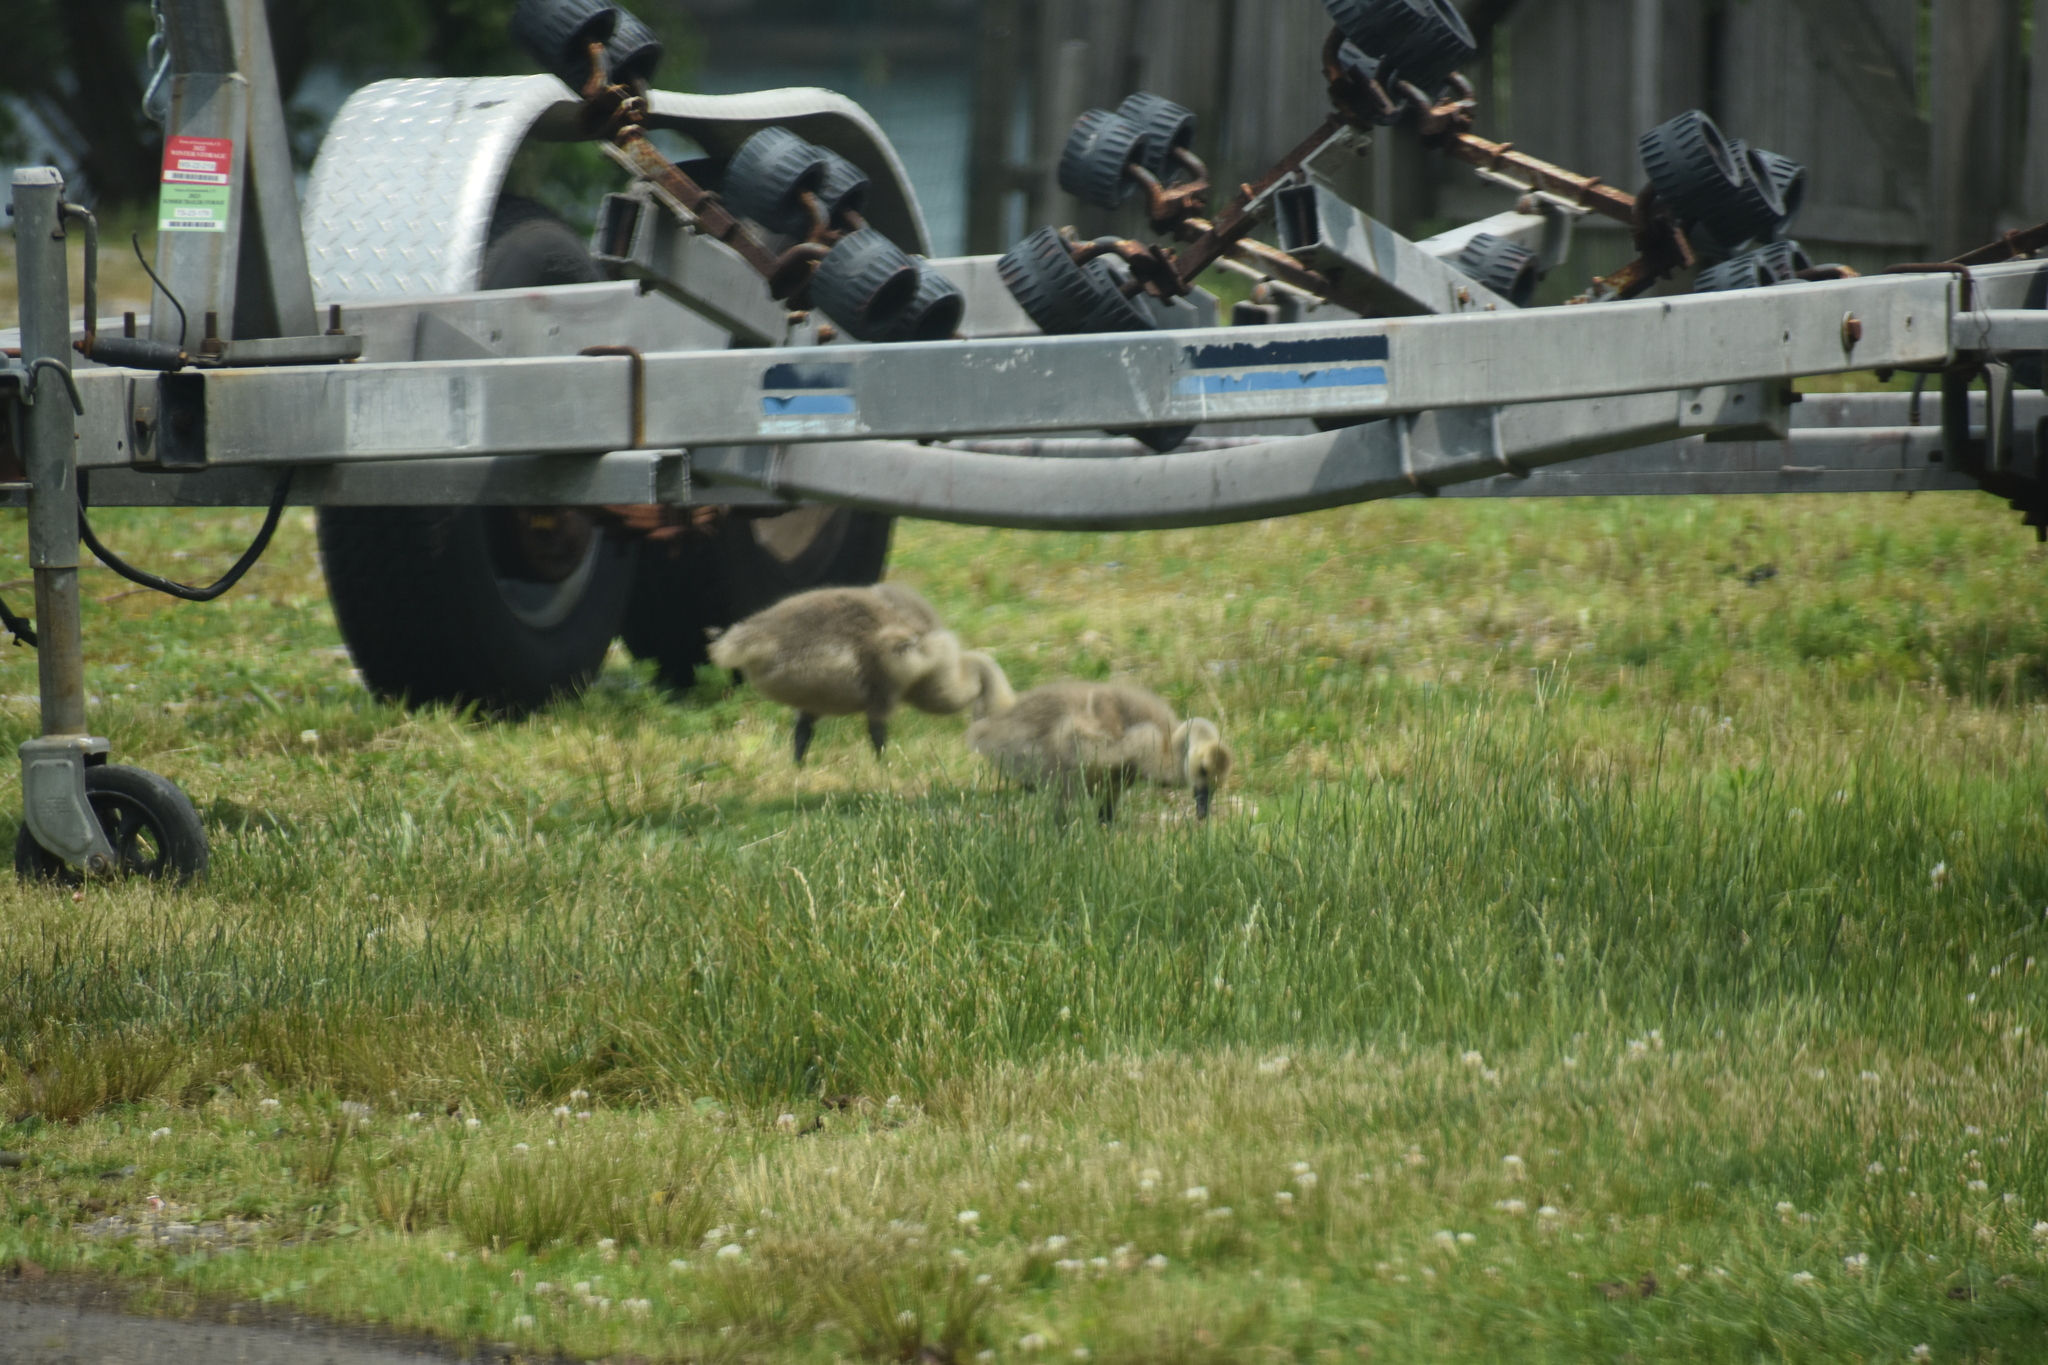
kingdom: Animalia
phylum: Chordata
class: Aves
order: Anseriformes
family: Anatidae
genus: Branta
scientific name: Branta canadensis
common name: Canada goose
